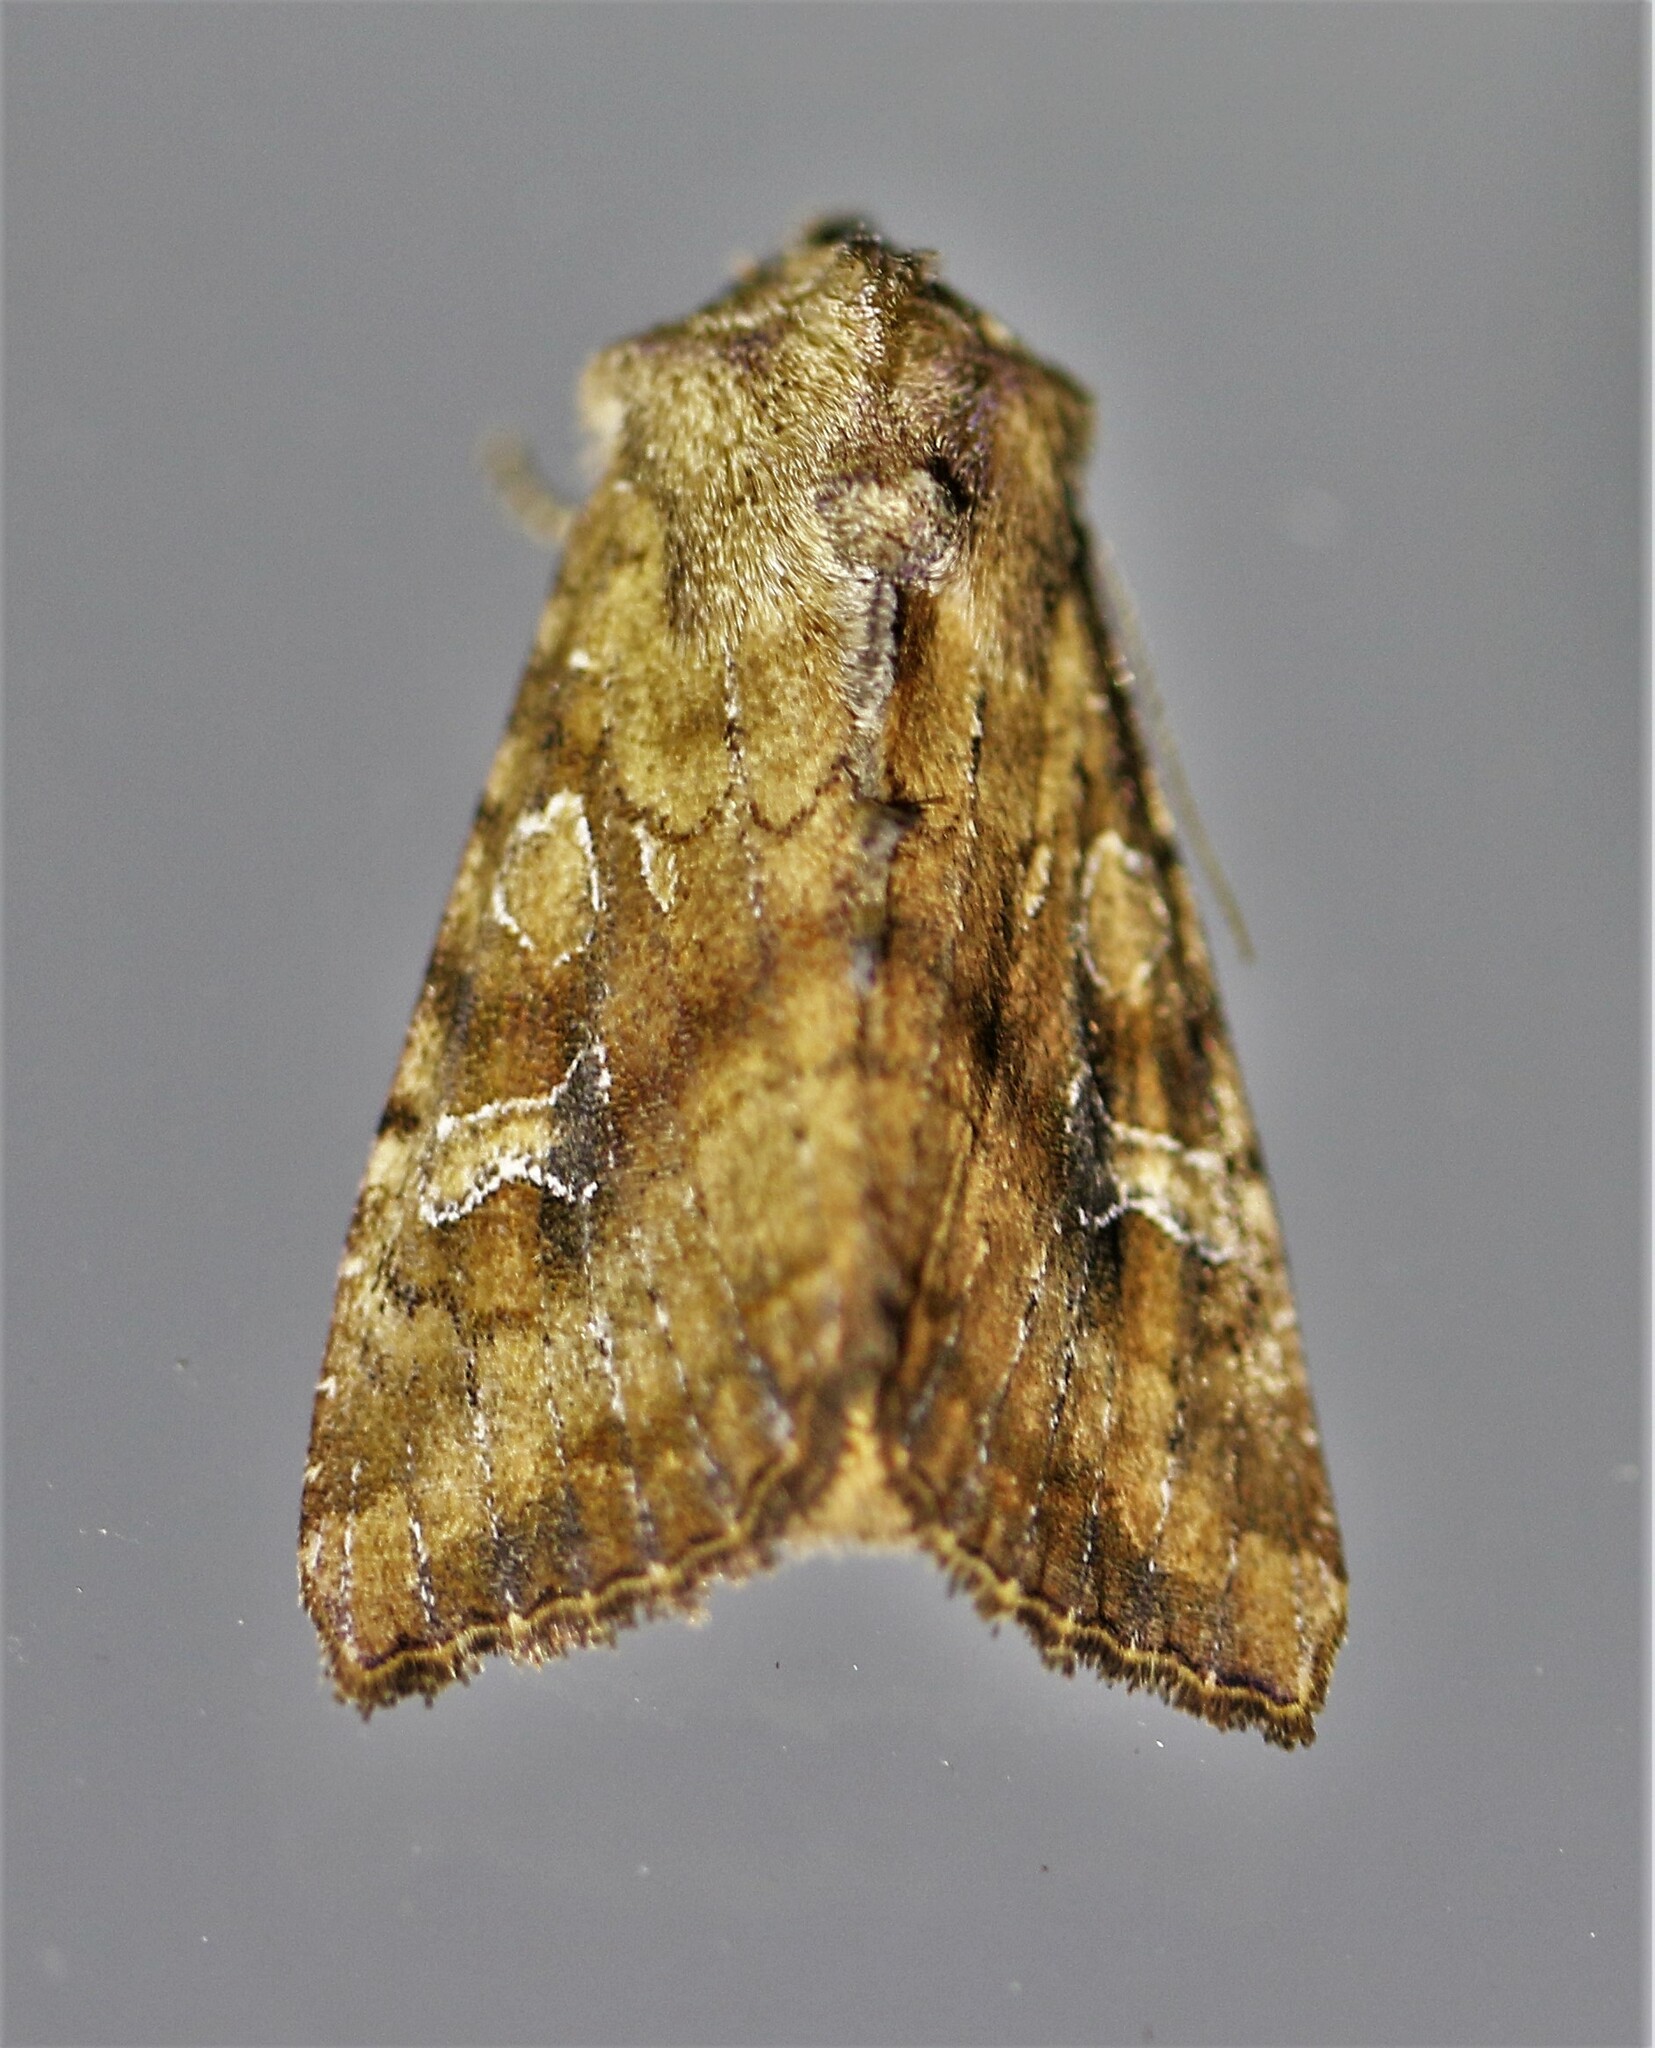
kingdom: Animalia
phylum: Arthropoda
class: Insecta
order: Lepidoptera
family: Noctuidae
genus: Loscopia
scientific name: Loscopia velata
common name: Veiled ear moth
